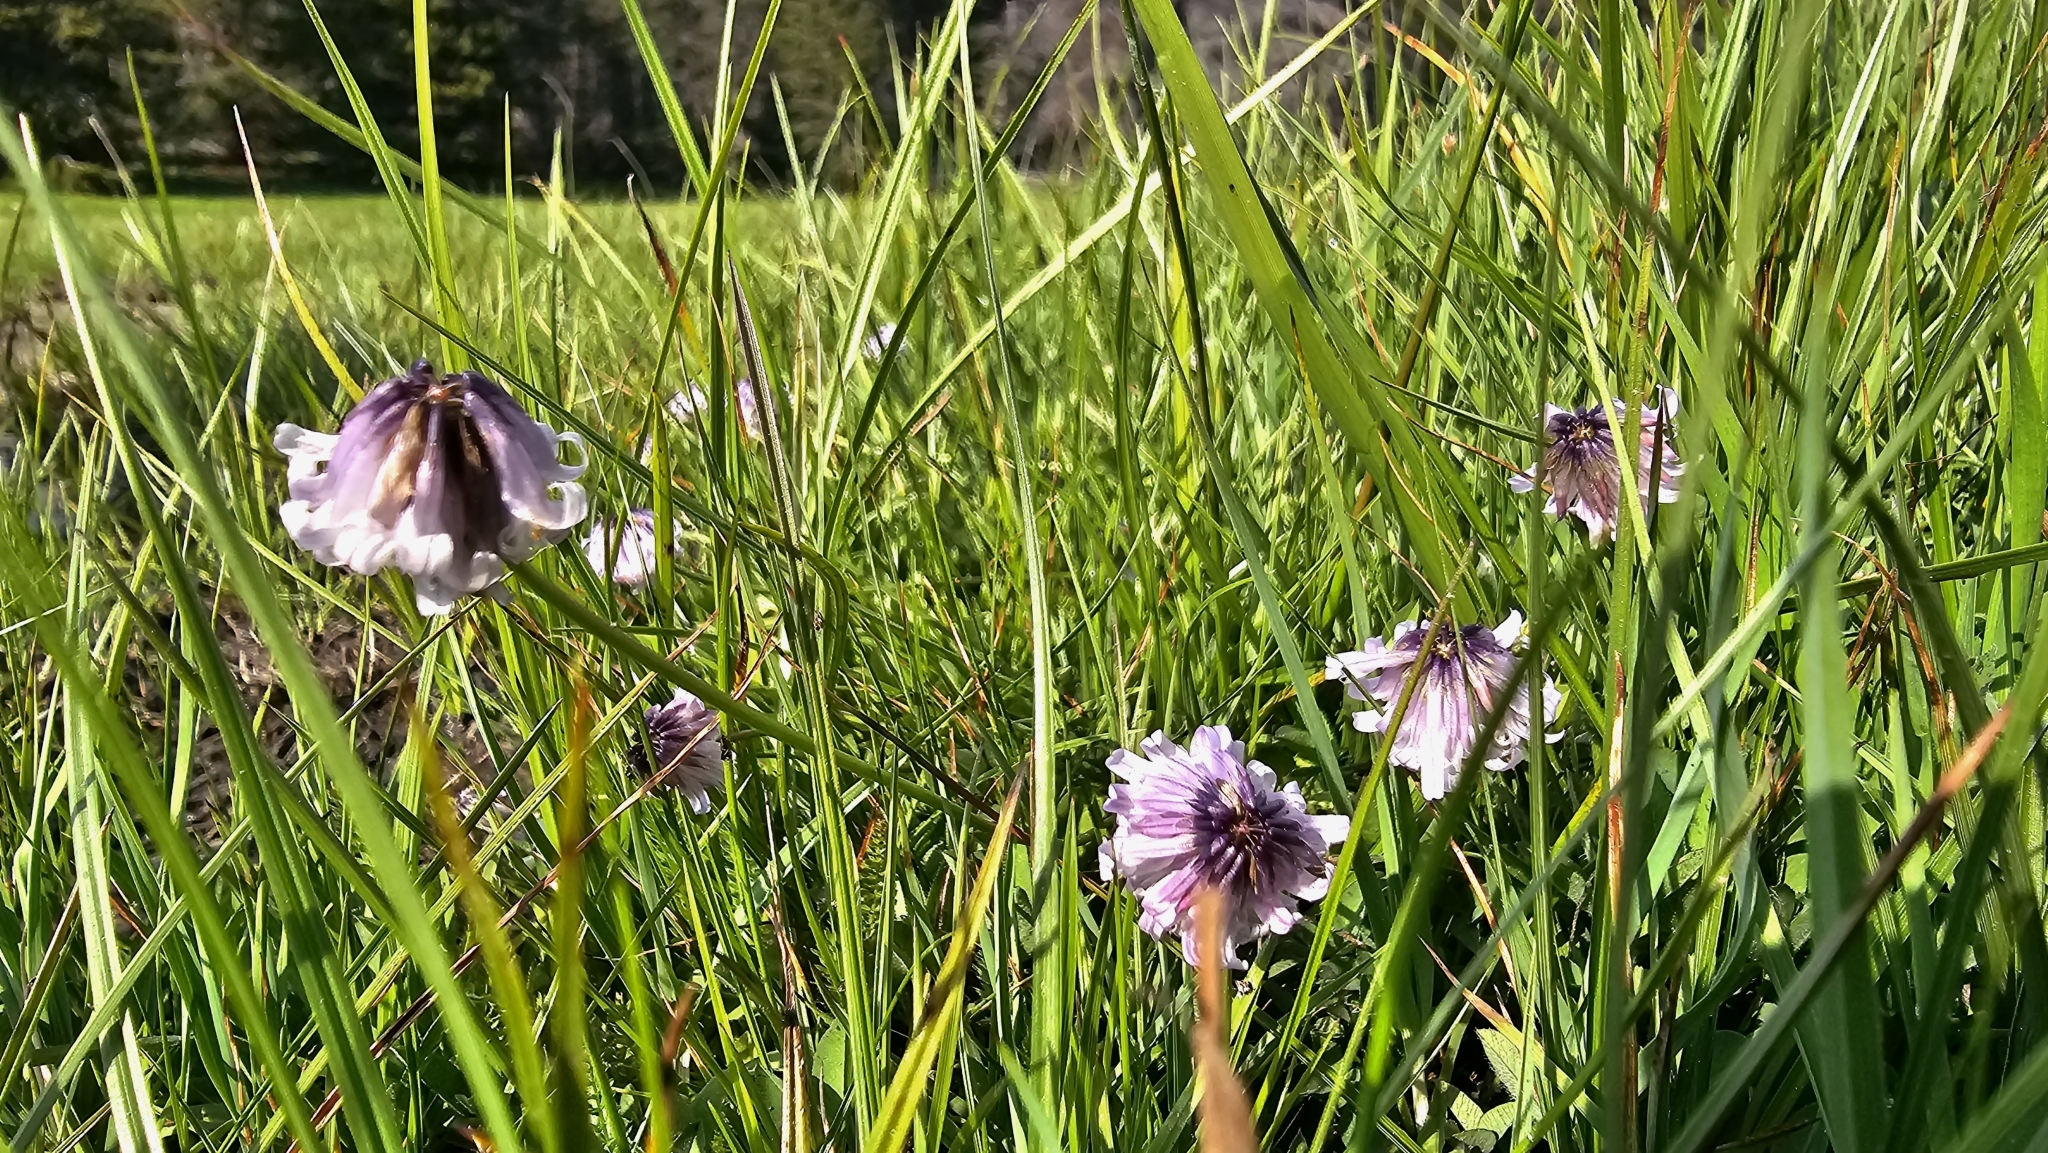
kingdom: Plantae
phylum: Tracheophyta
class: Magnoliopsida
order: Fabales
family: Fabaceae
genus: Trifolium
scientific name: Trifolium bolanderi
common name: Bolander's clover
